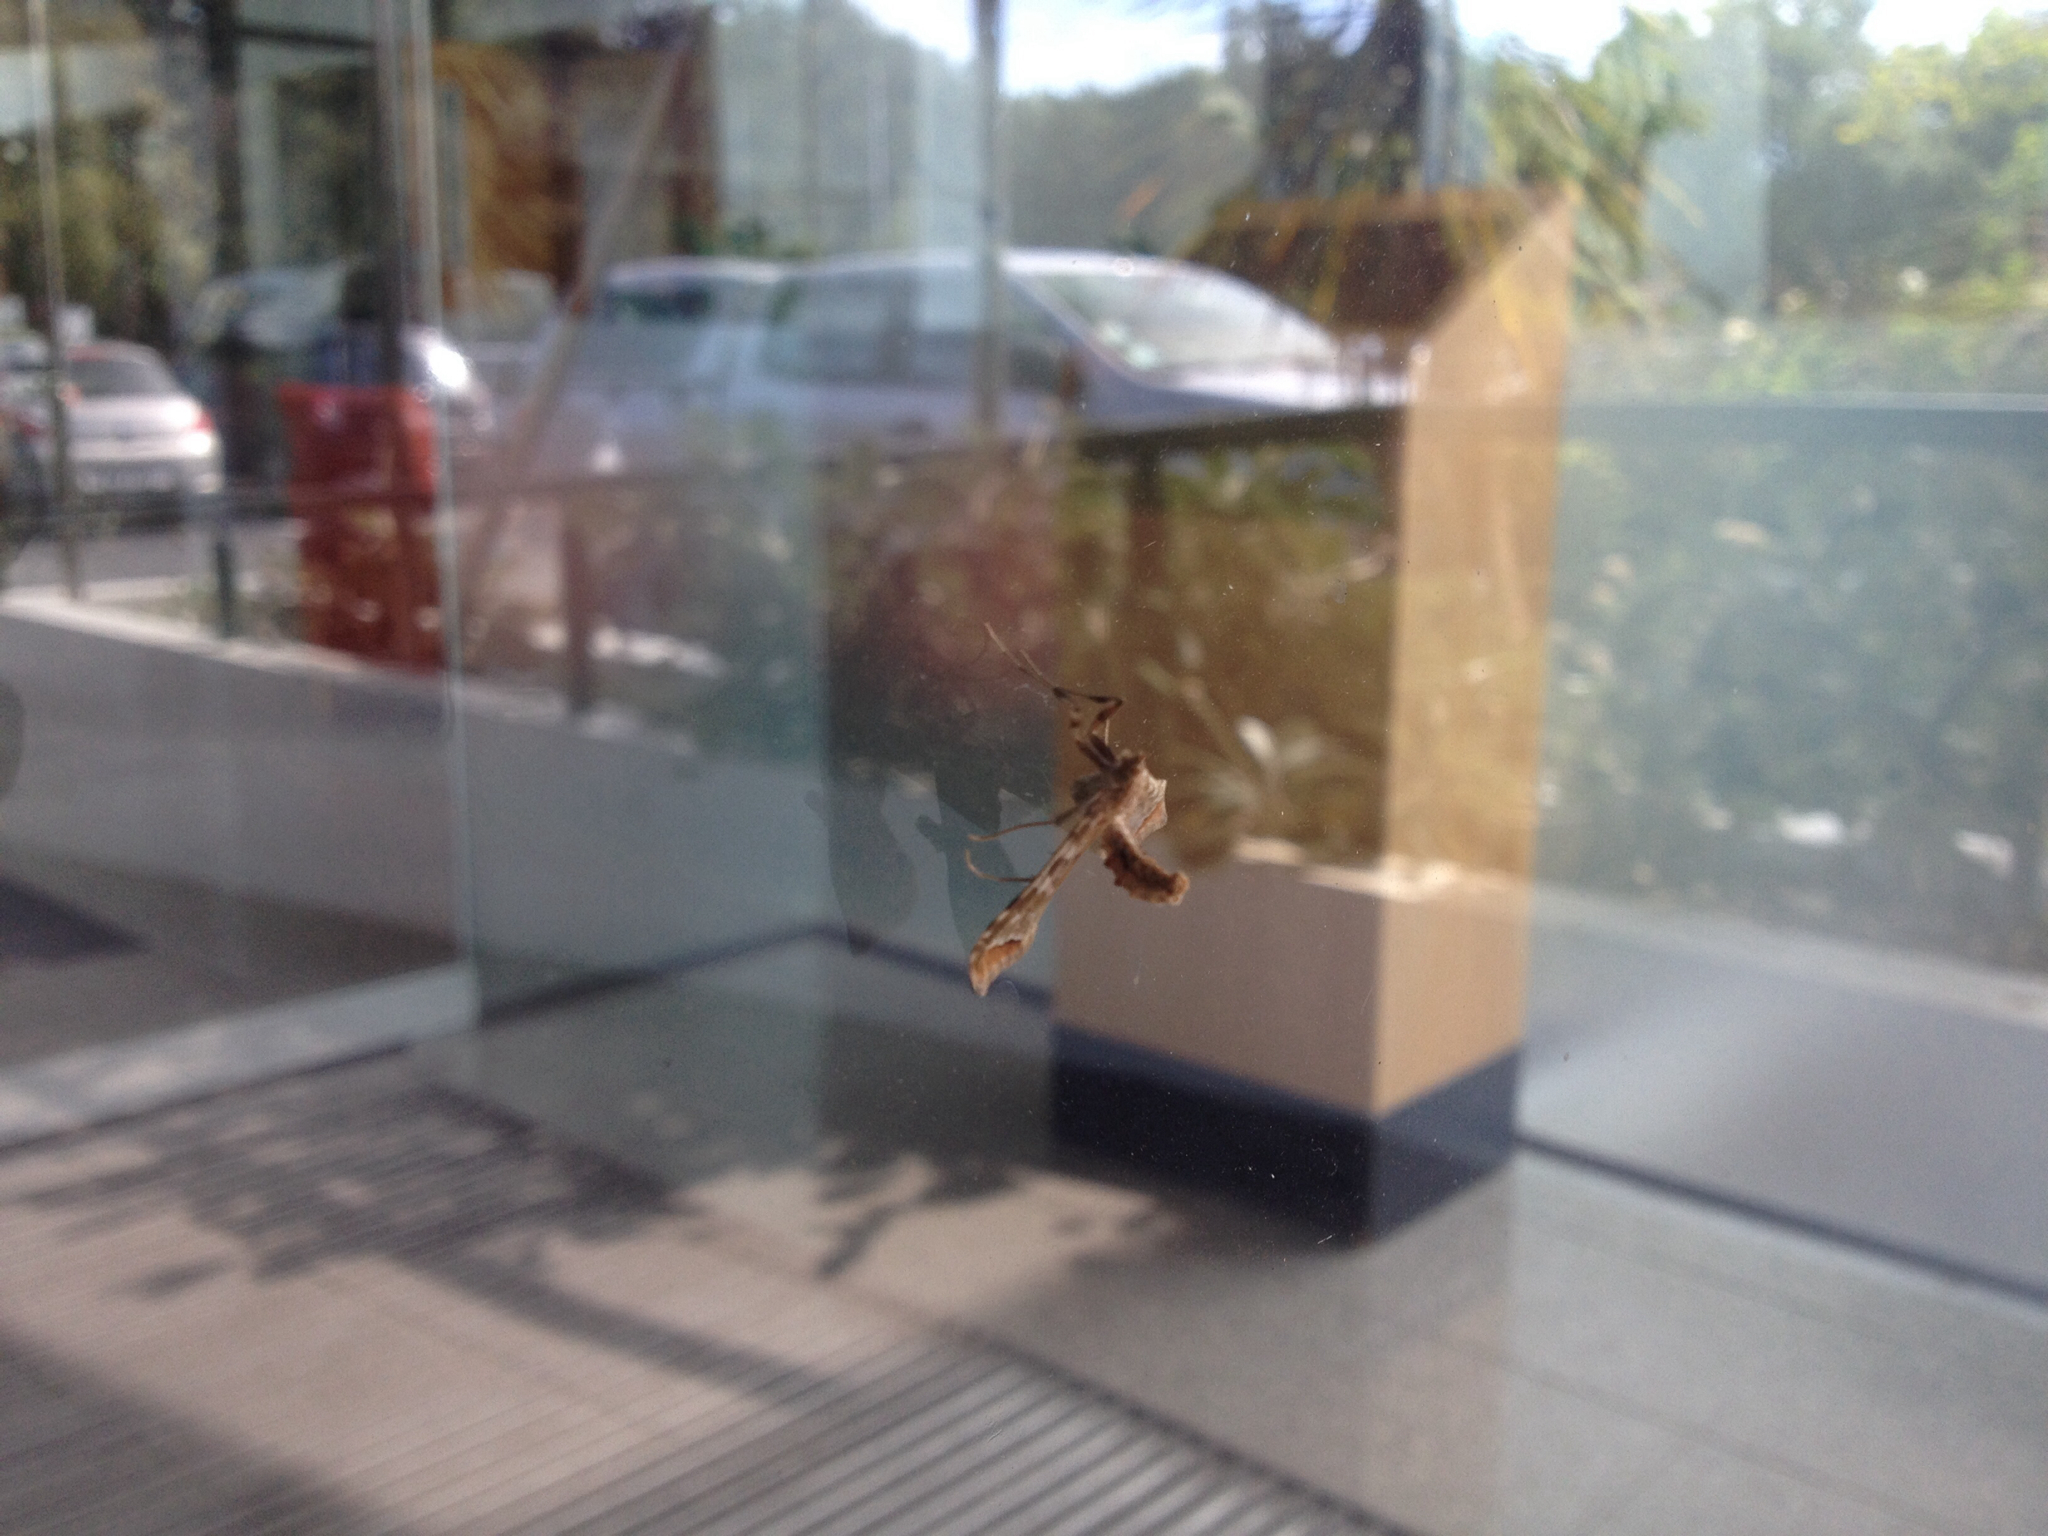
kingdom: Animalia
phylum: Arthropoda
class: Insecta
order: Lepidoptera
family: Crambidae
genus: Sceliodes
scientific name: Sceliodes cordalis
